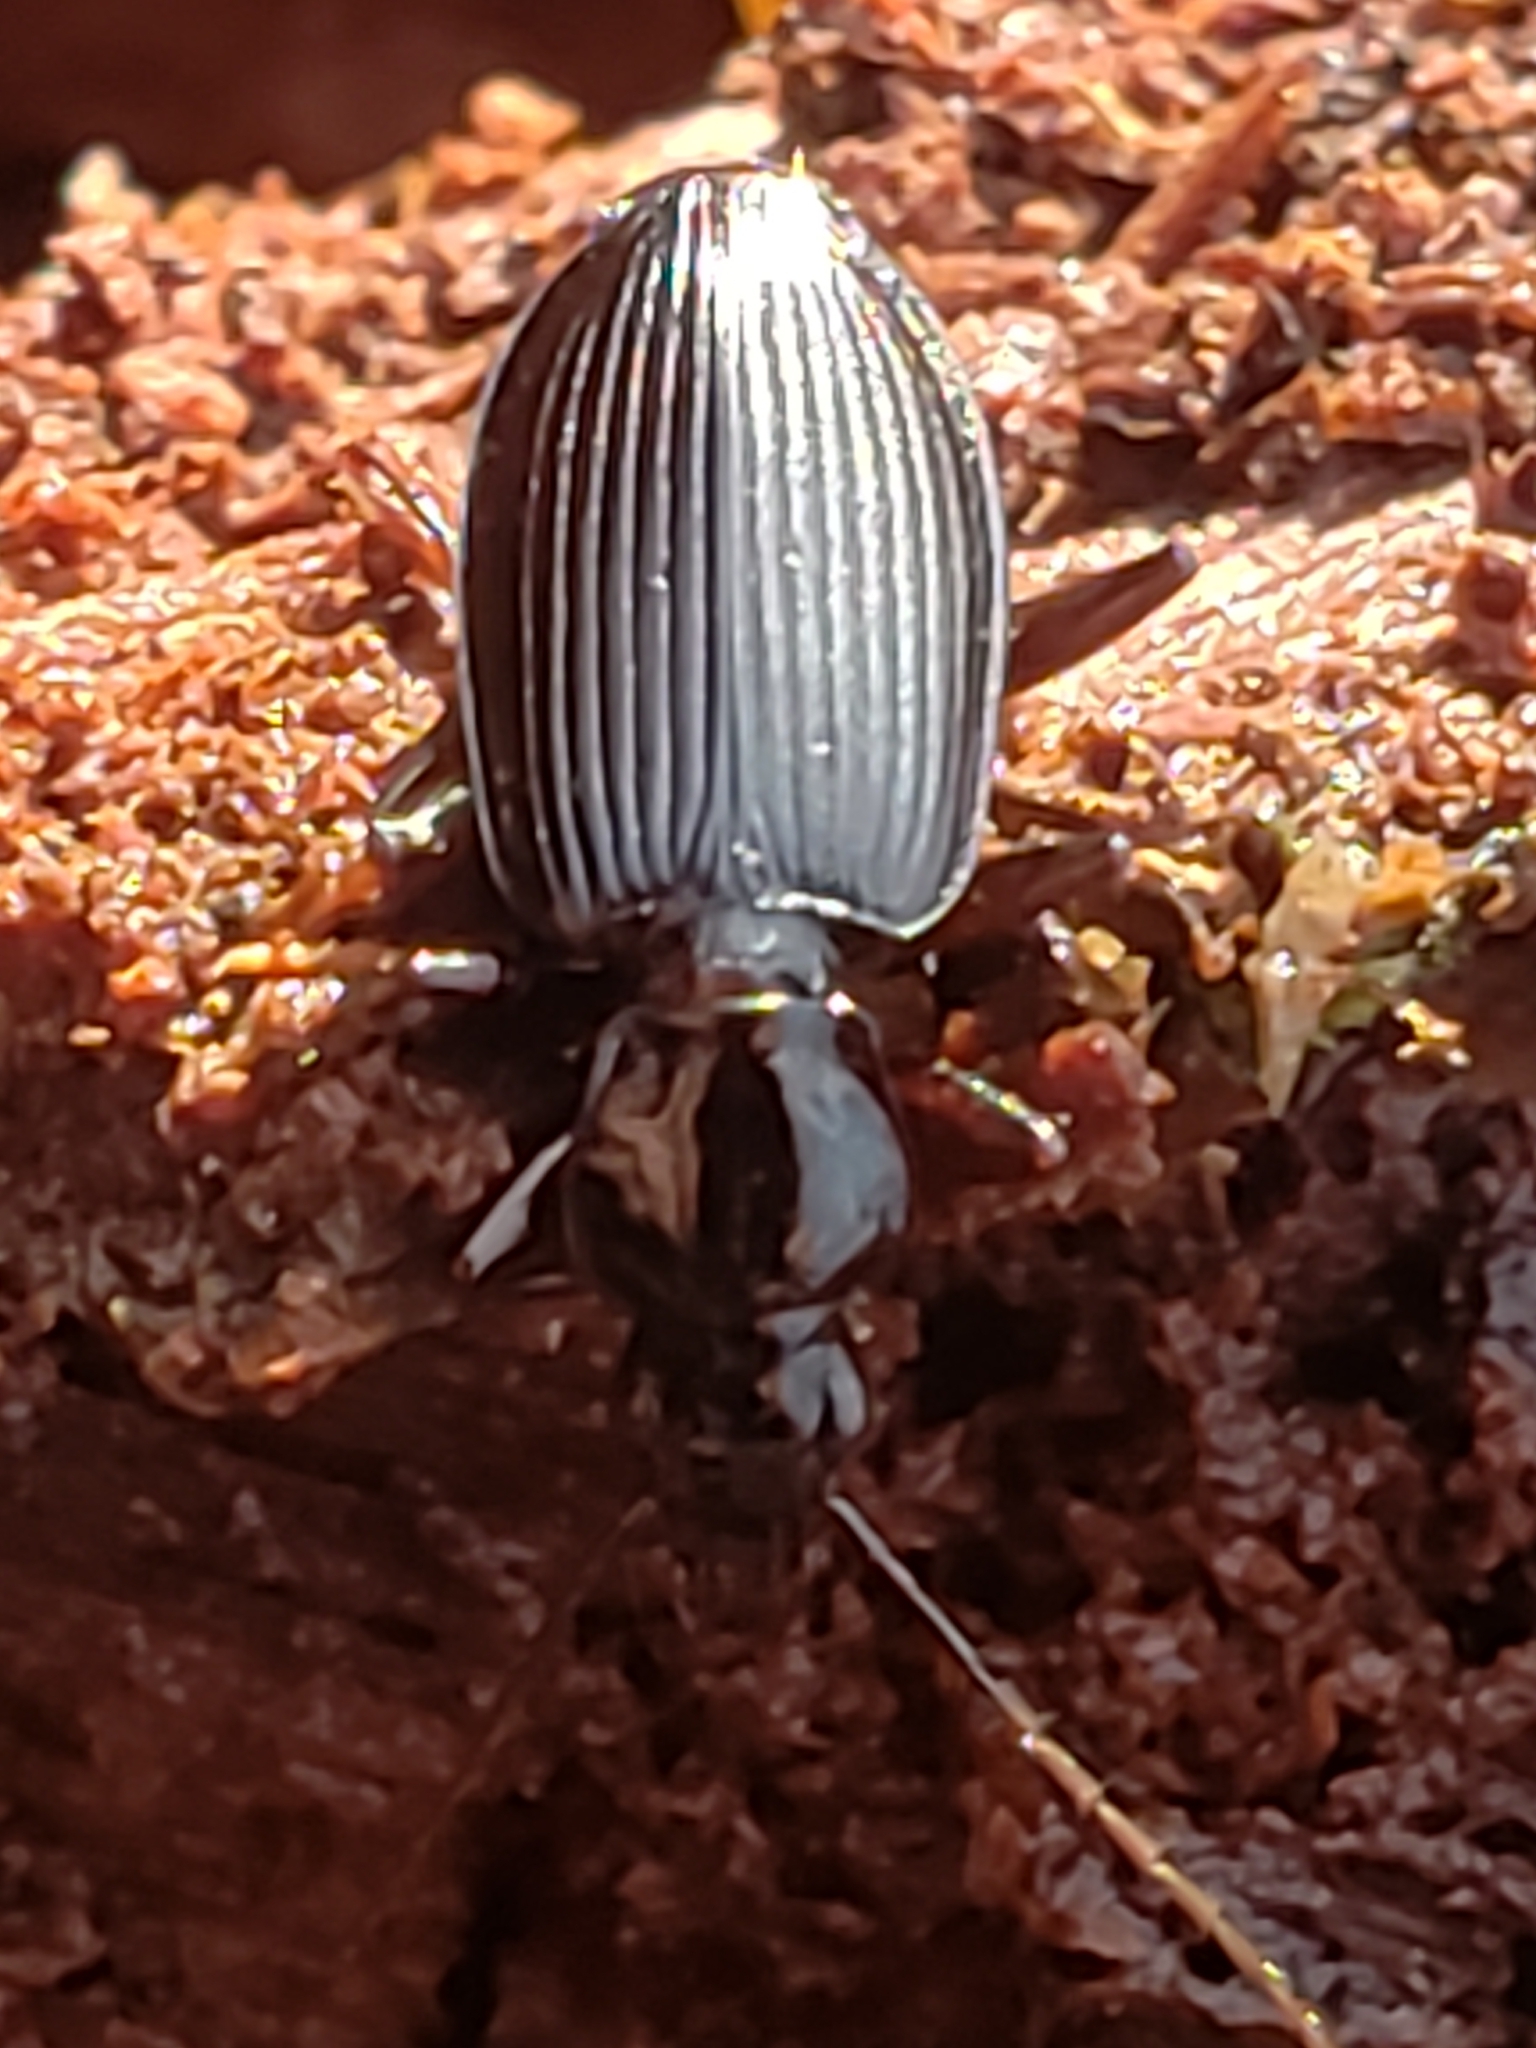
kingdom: Animalia
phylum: Arthropoda
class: Insecta
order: Coleoptera
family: Carabidae
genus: Platynus
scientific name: Platynus decentis
